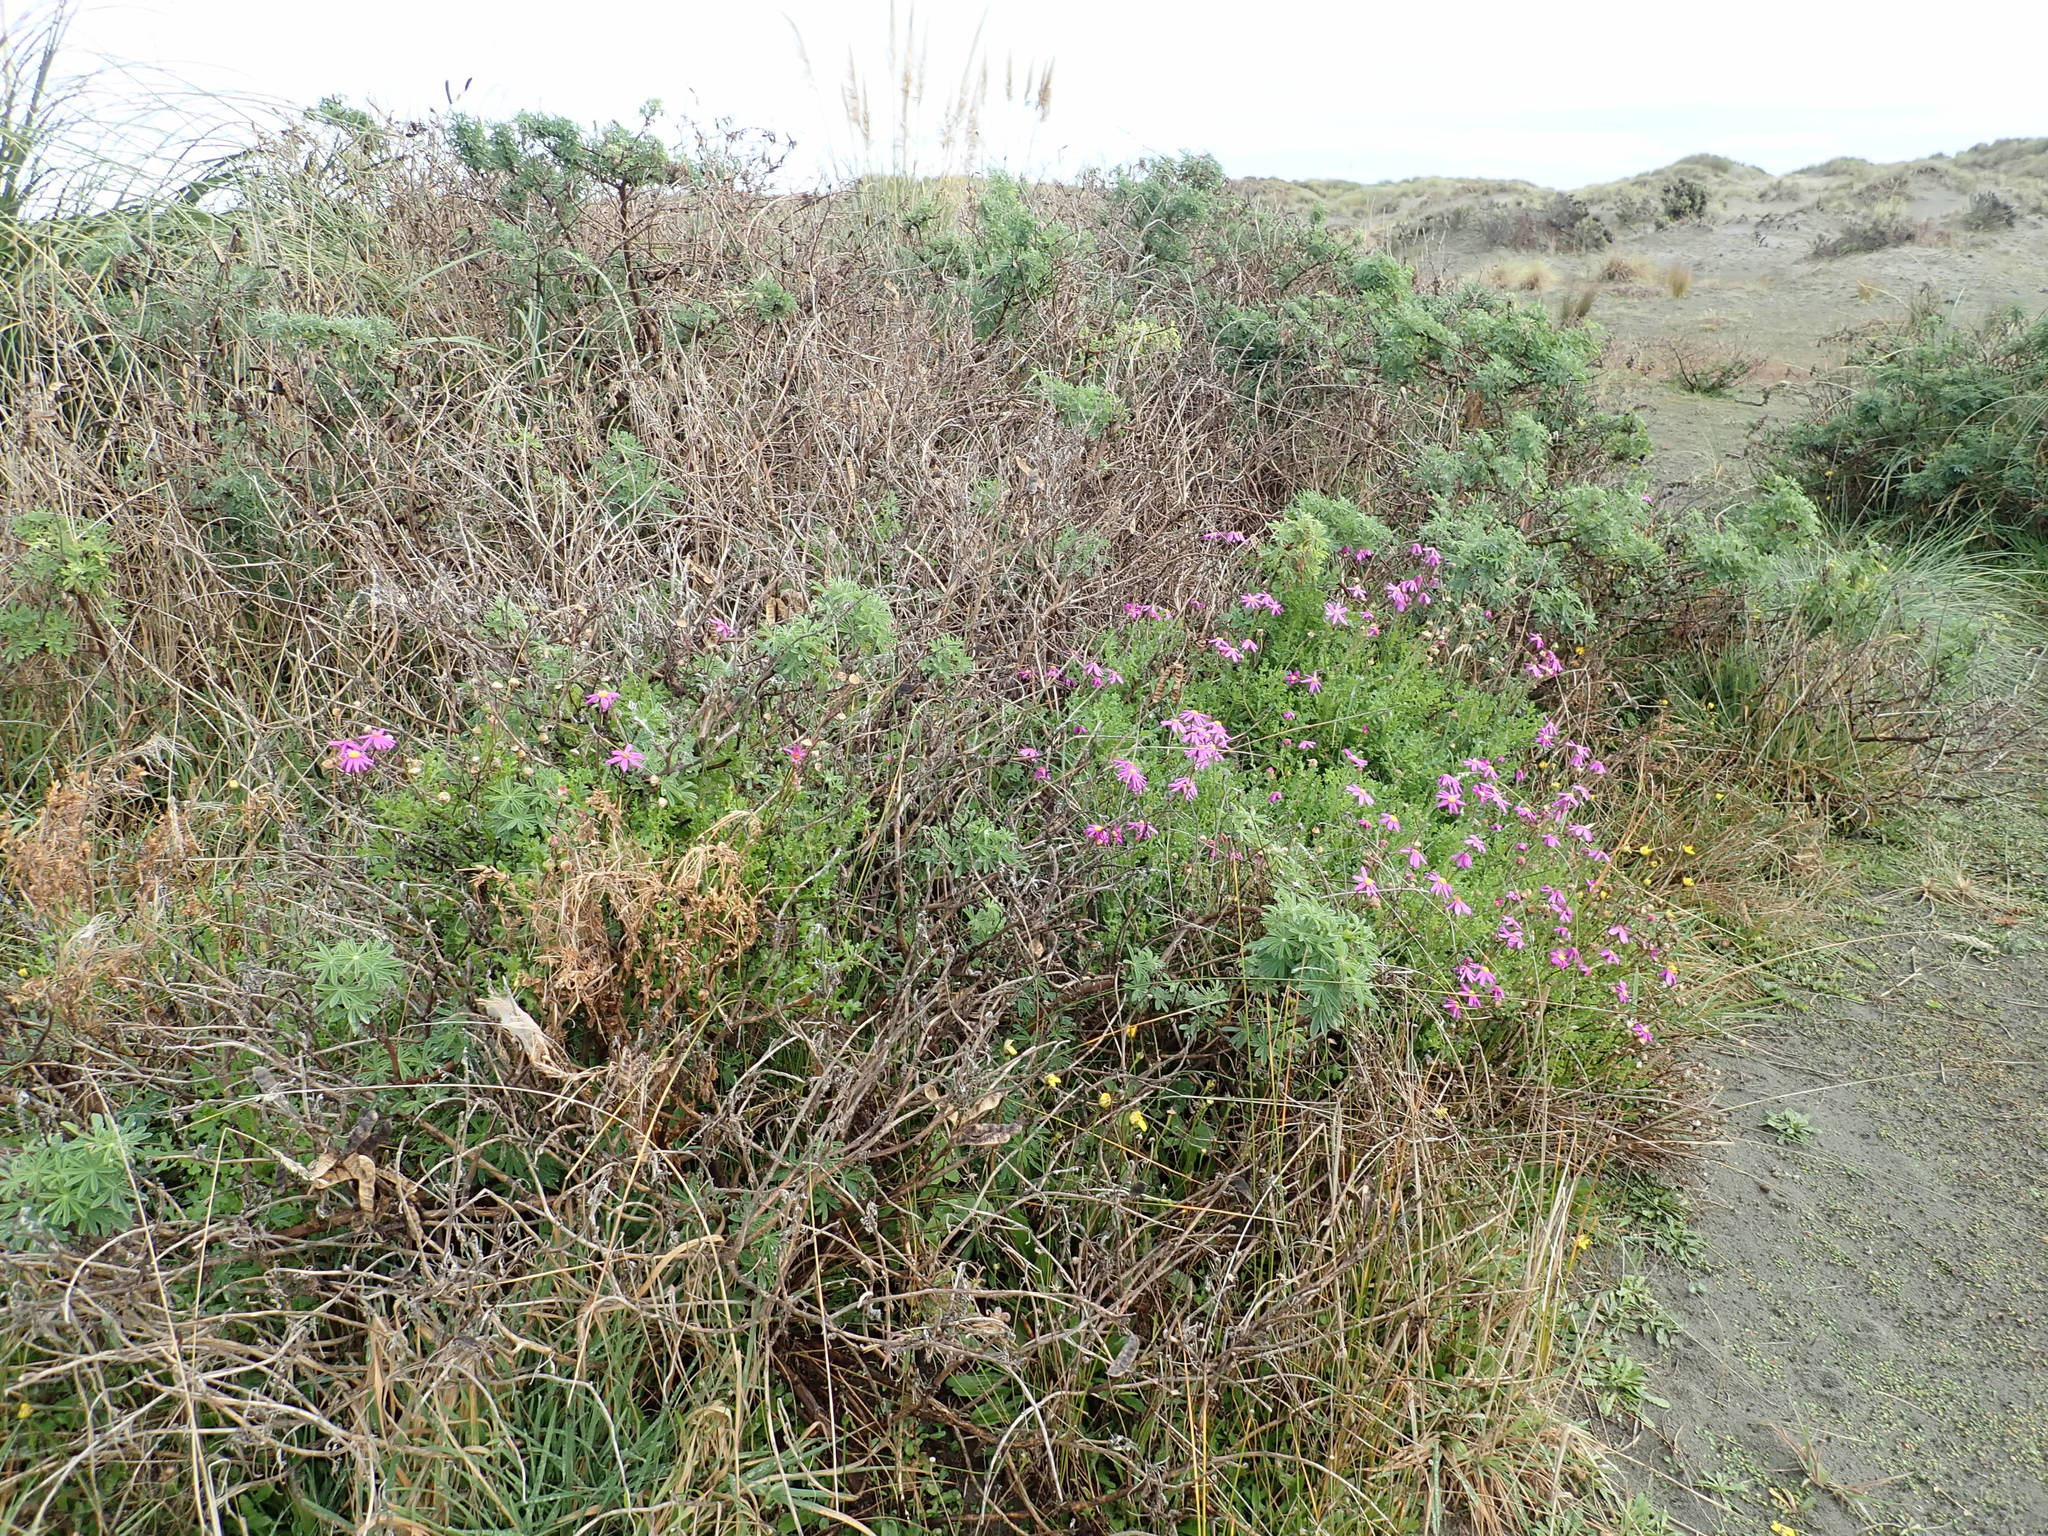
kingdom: Plantae
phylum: Tracheophyta
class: Magnoliopsida
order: Fabales
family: Fabaceae
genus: Lupinus
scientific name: Lupinus arboreus
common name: Yellow bush lupine
